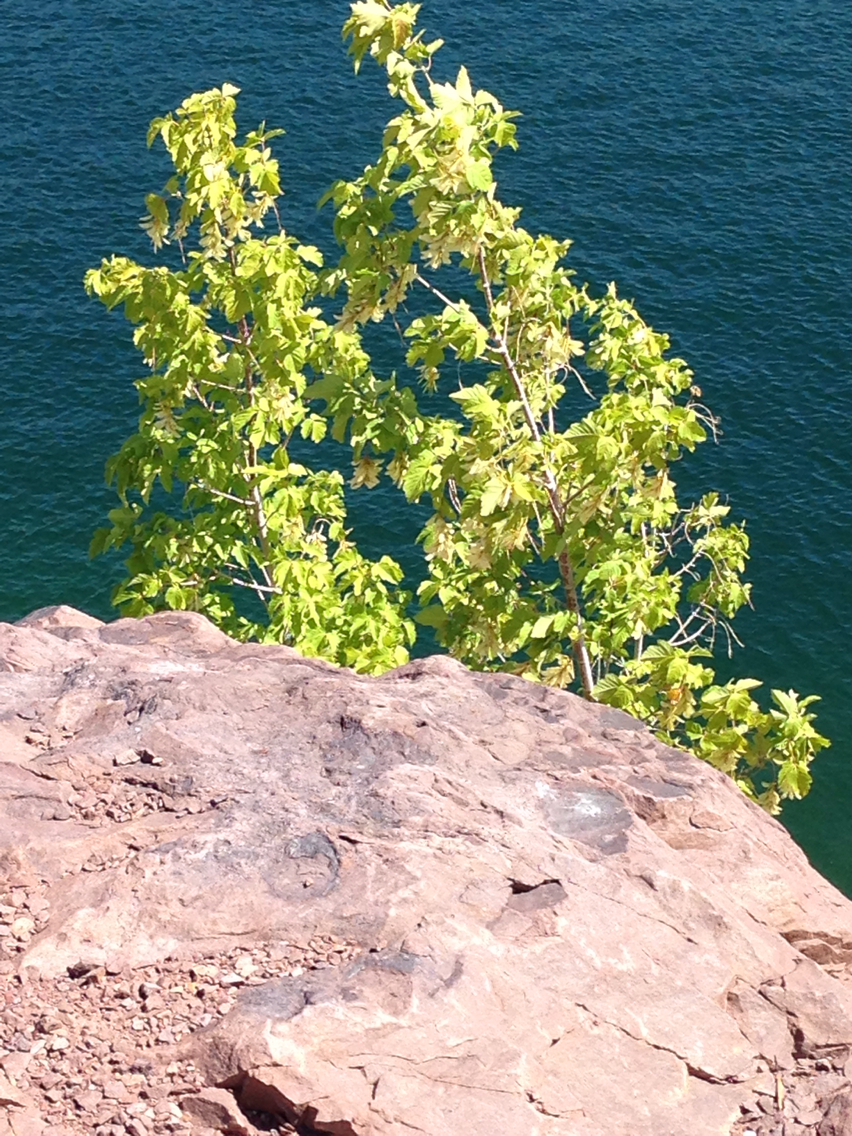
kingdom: Plantae
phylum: Tracheophyta
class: Magnoliopsida
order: Sapindales
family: Sapindaceae
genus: Acer
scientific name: Acer negundo
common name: Ashleaf maple
